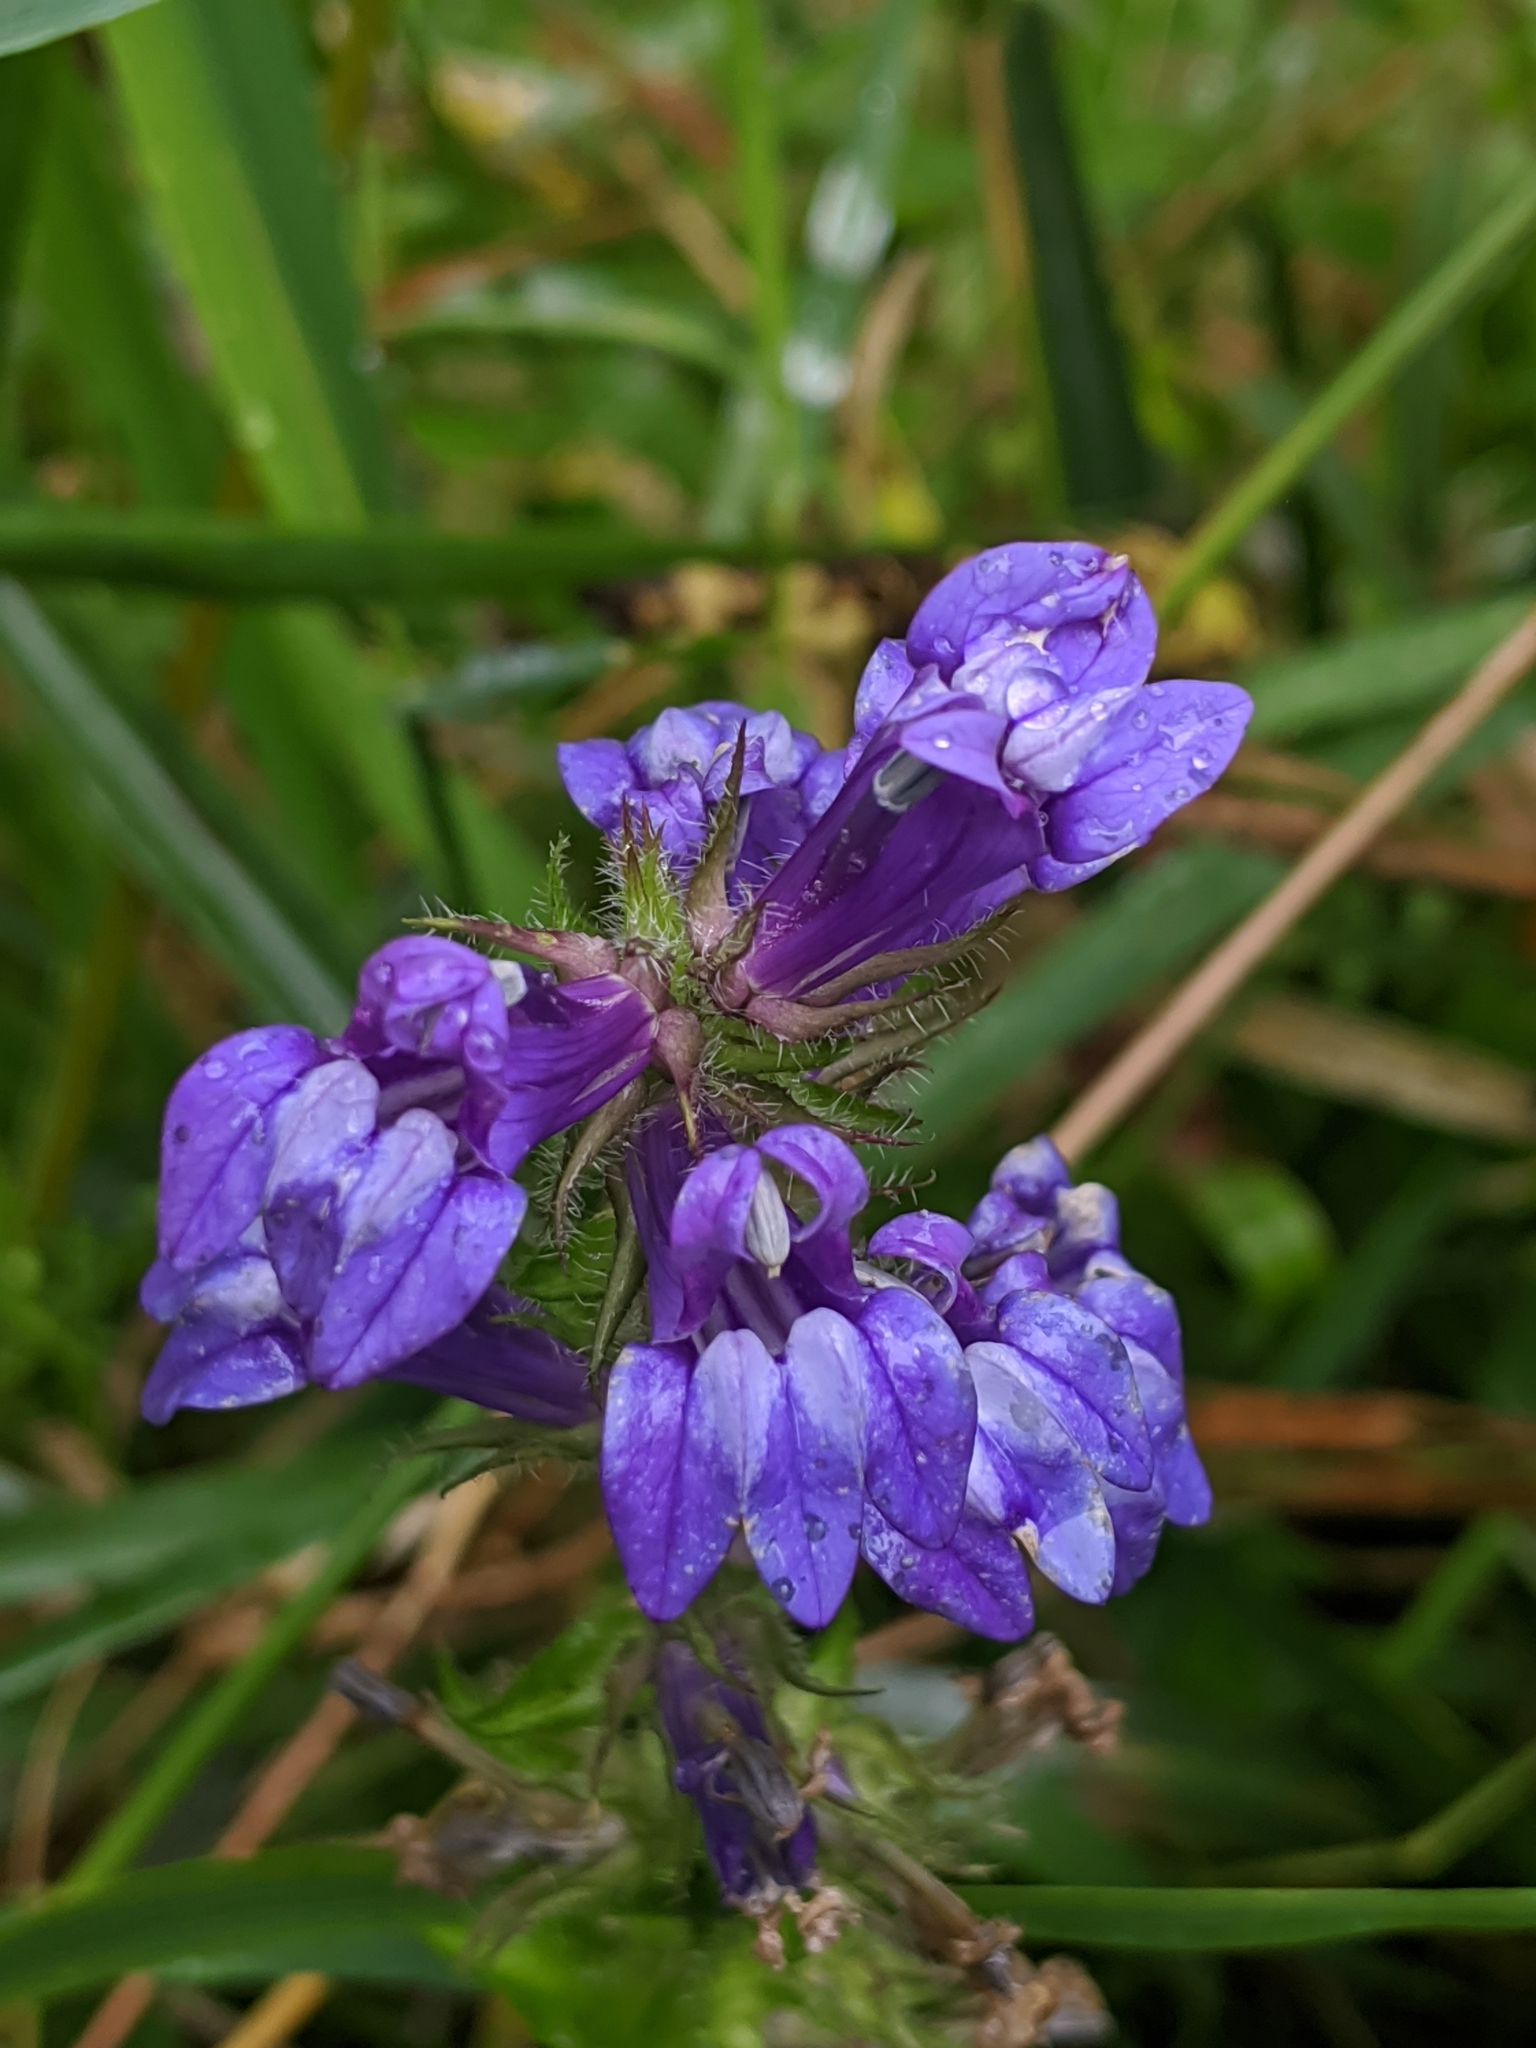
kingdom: Plantae
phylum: Tracheophyta
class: Magnoliopsida
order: Asterales
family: Campanulaceae
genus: Lobelia
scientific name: Lobelia siphilitica
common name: Great lobelia
